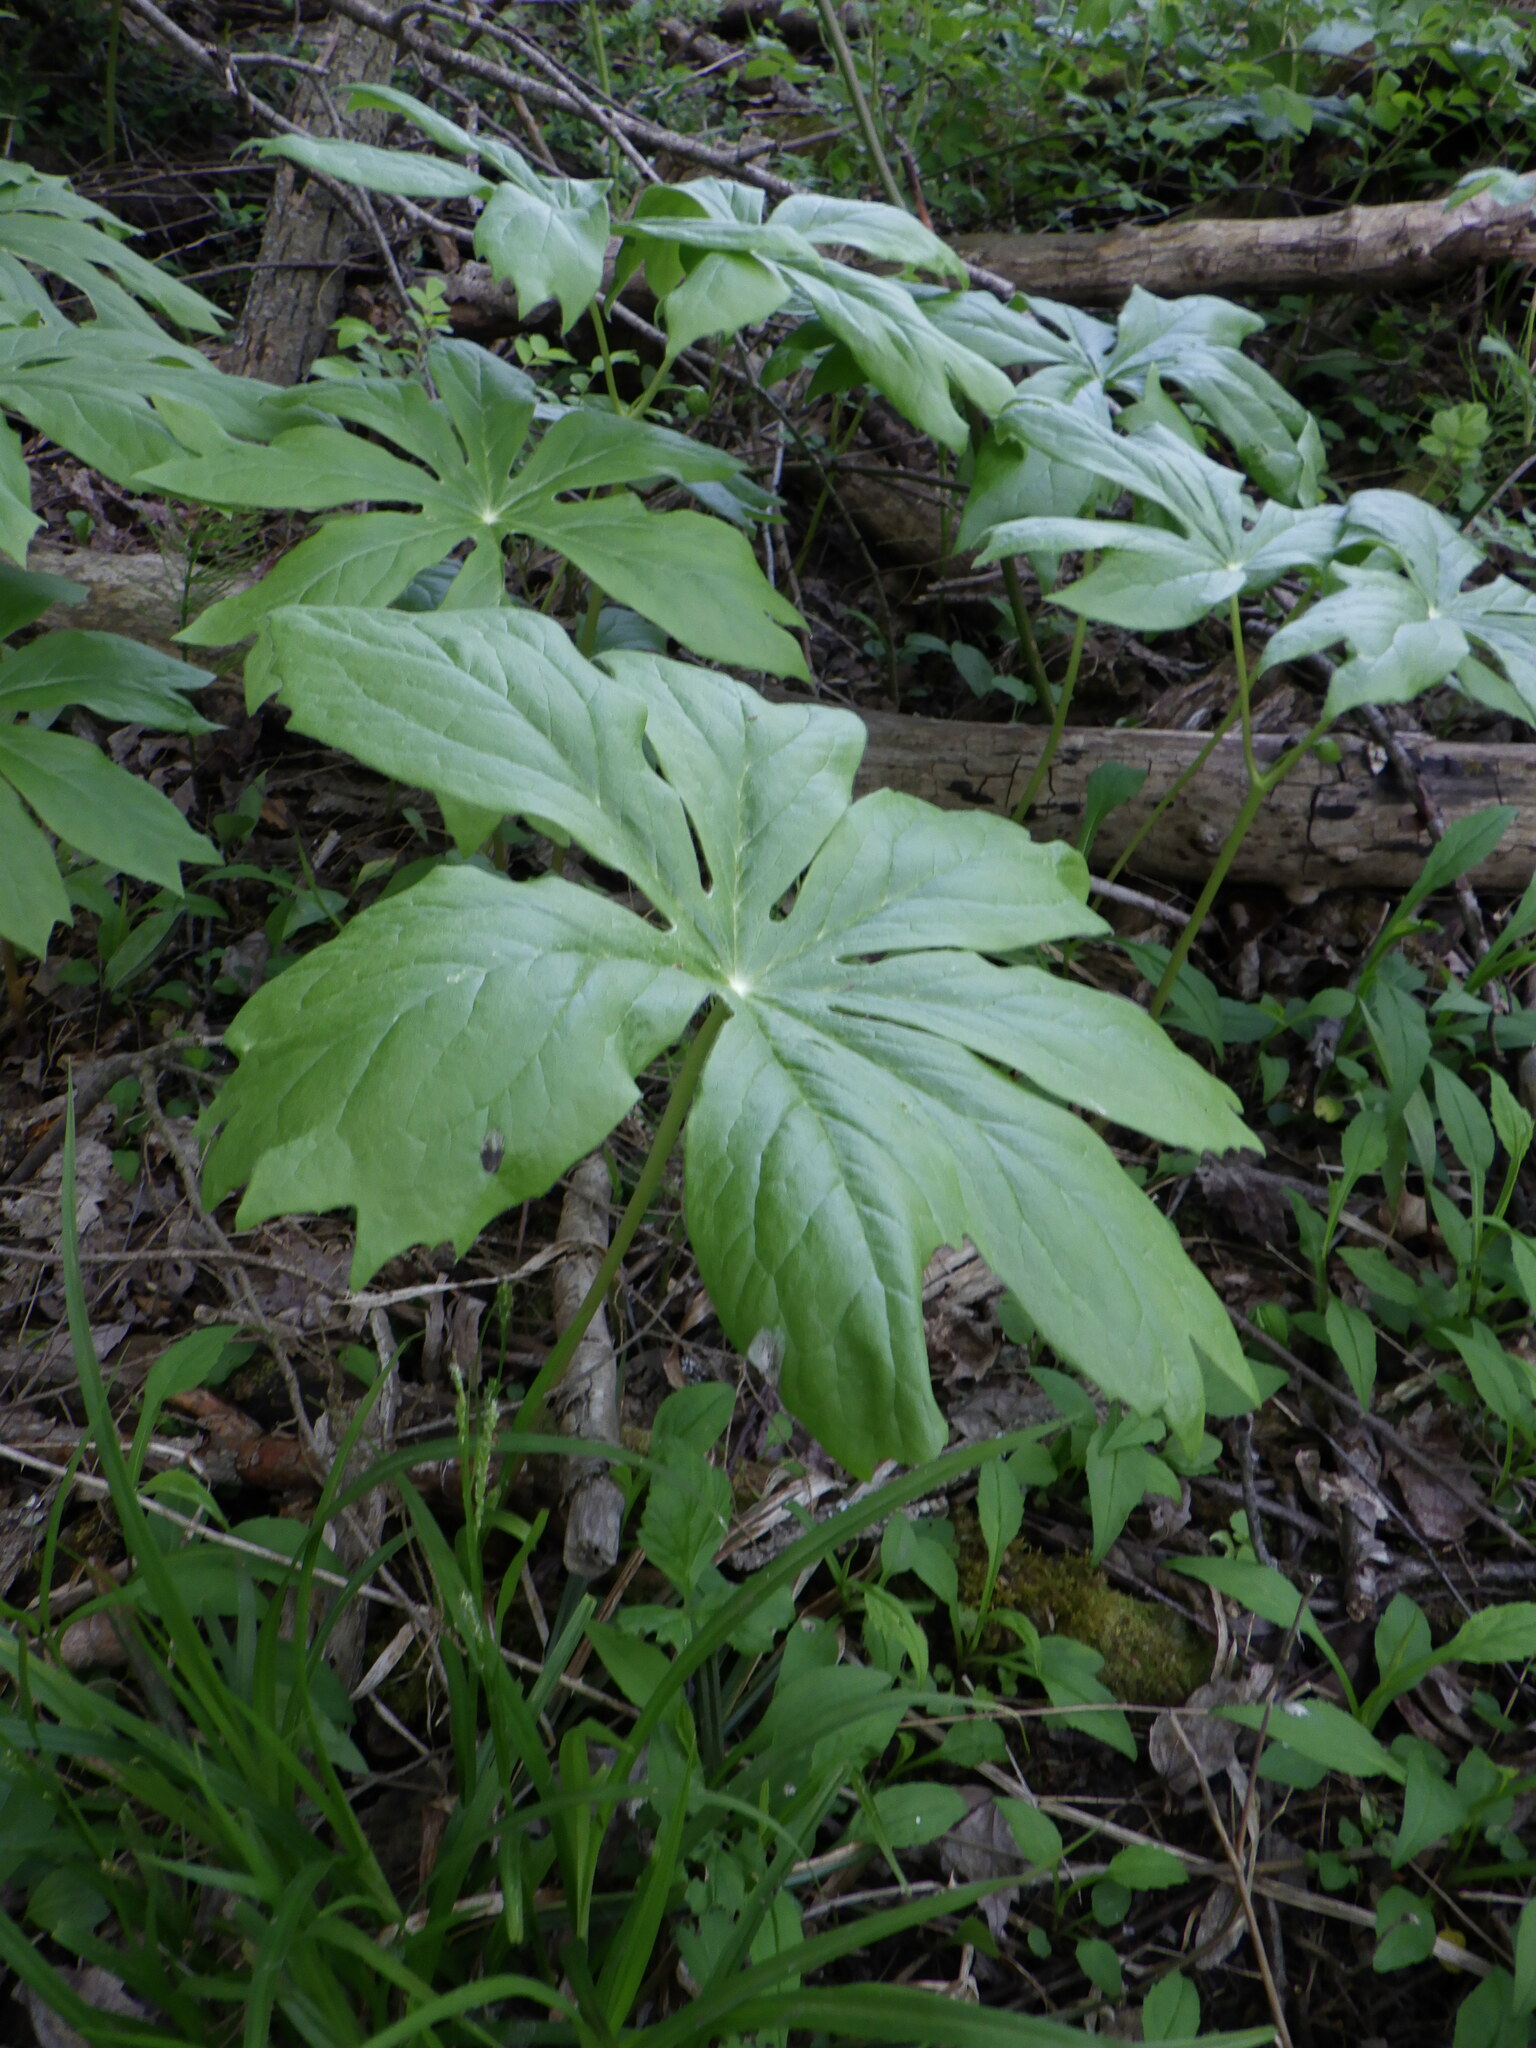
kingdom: Plantae
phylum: Tracheophyta
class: Magnoliopsida
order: Ranunculales
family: Berberidaceae
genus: Podophyllum
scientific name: Podophyllum peltatum
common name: Wild mandrake
